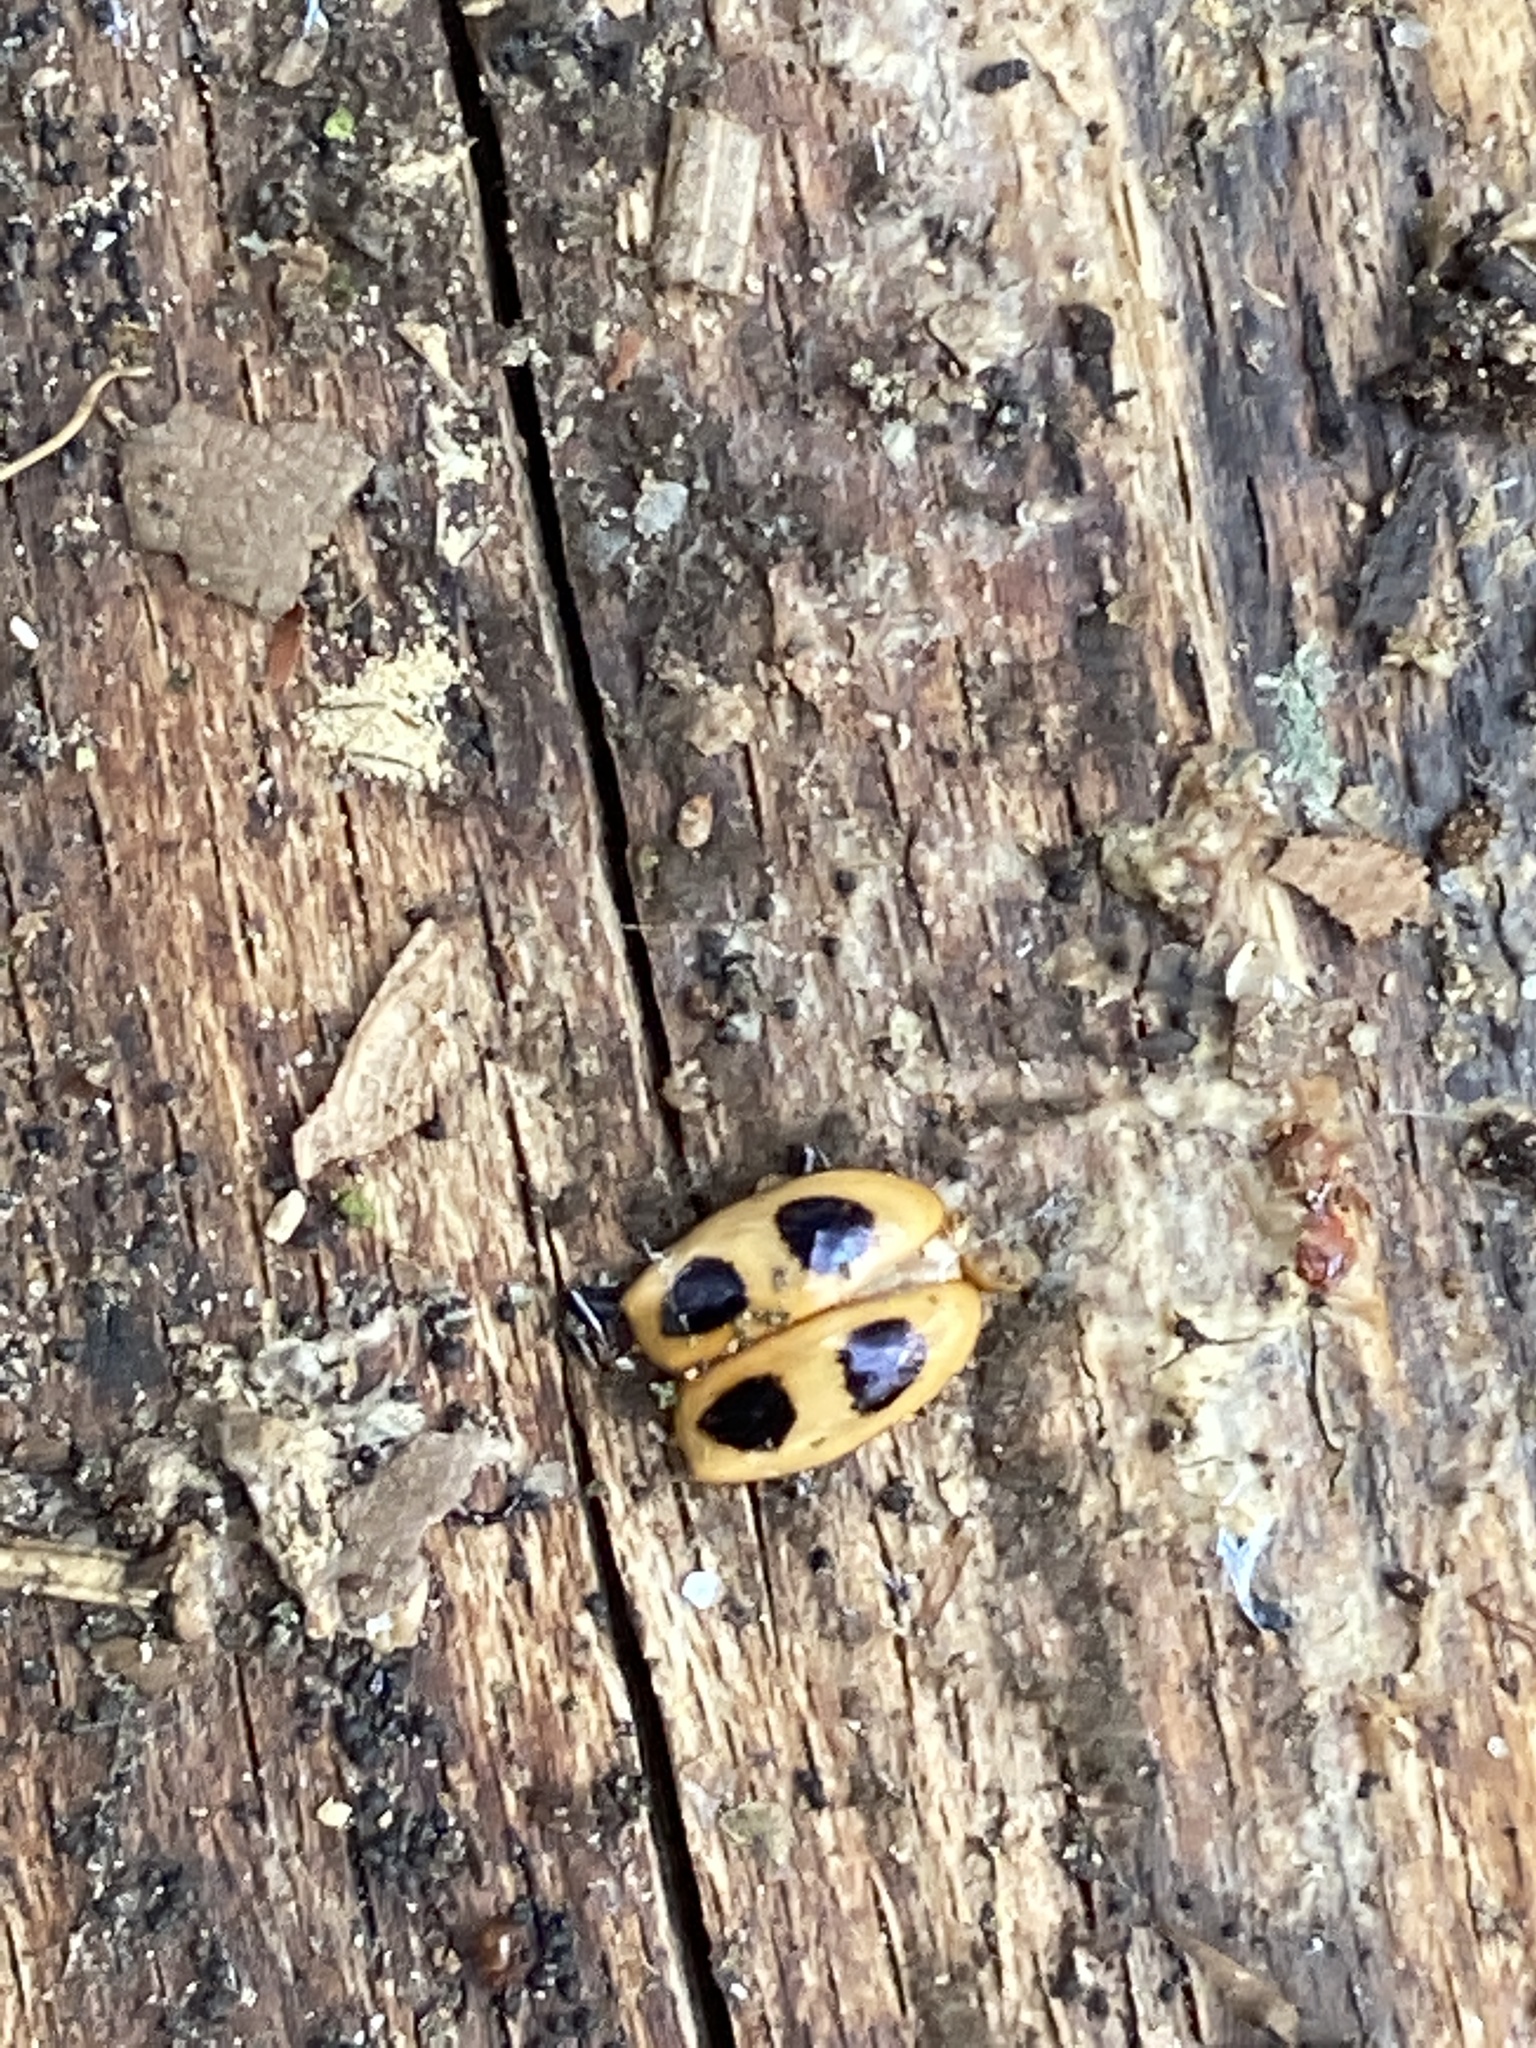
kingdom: Animalia
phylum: Arthropoda
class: Insecta
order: Coleoptera
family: Endomychidae
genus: Endomychus
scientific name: Endomychus coccineus
